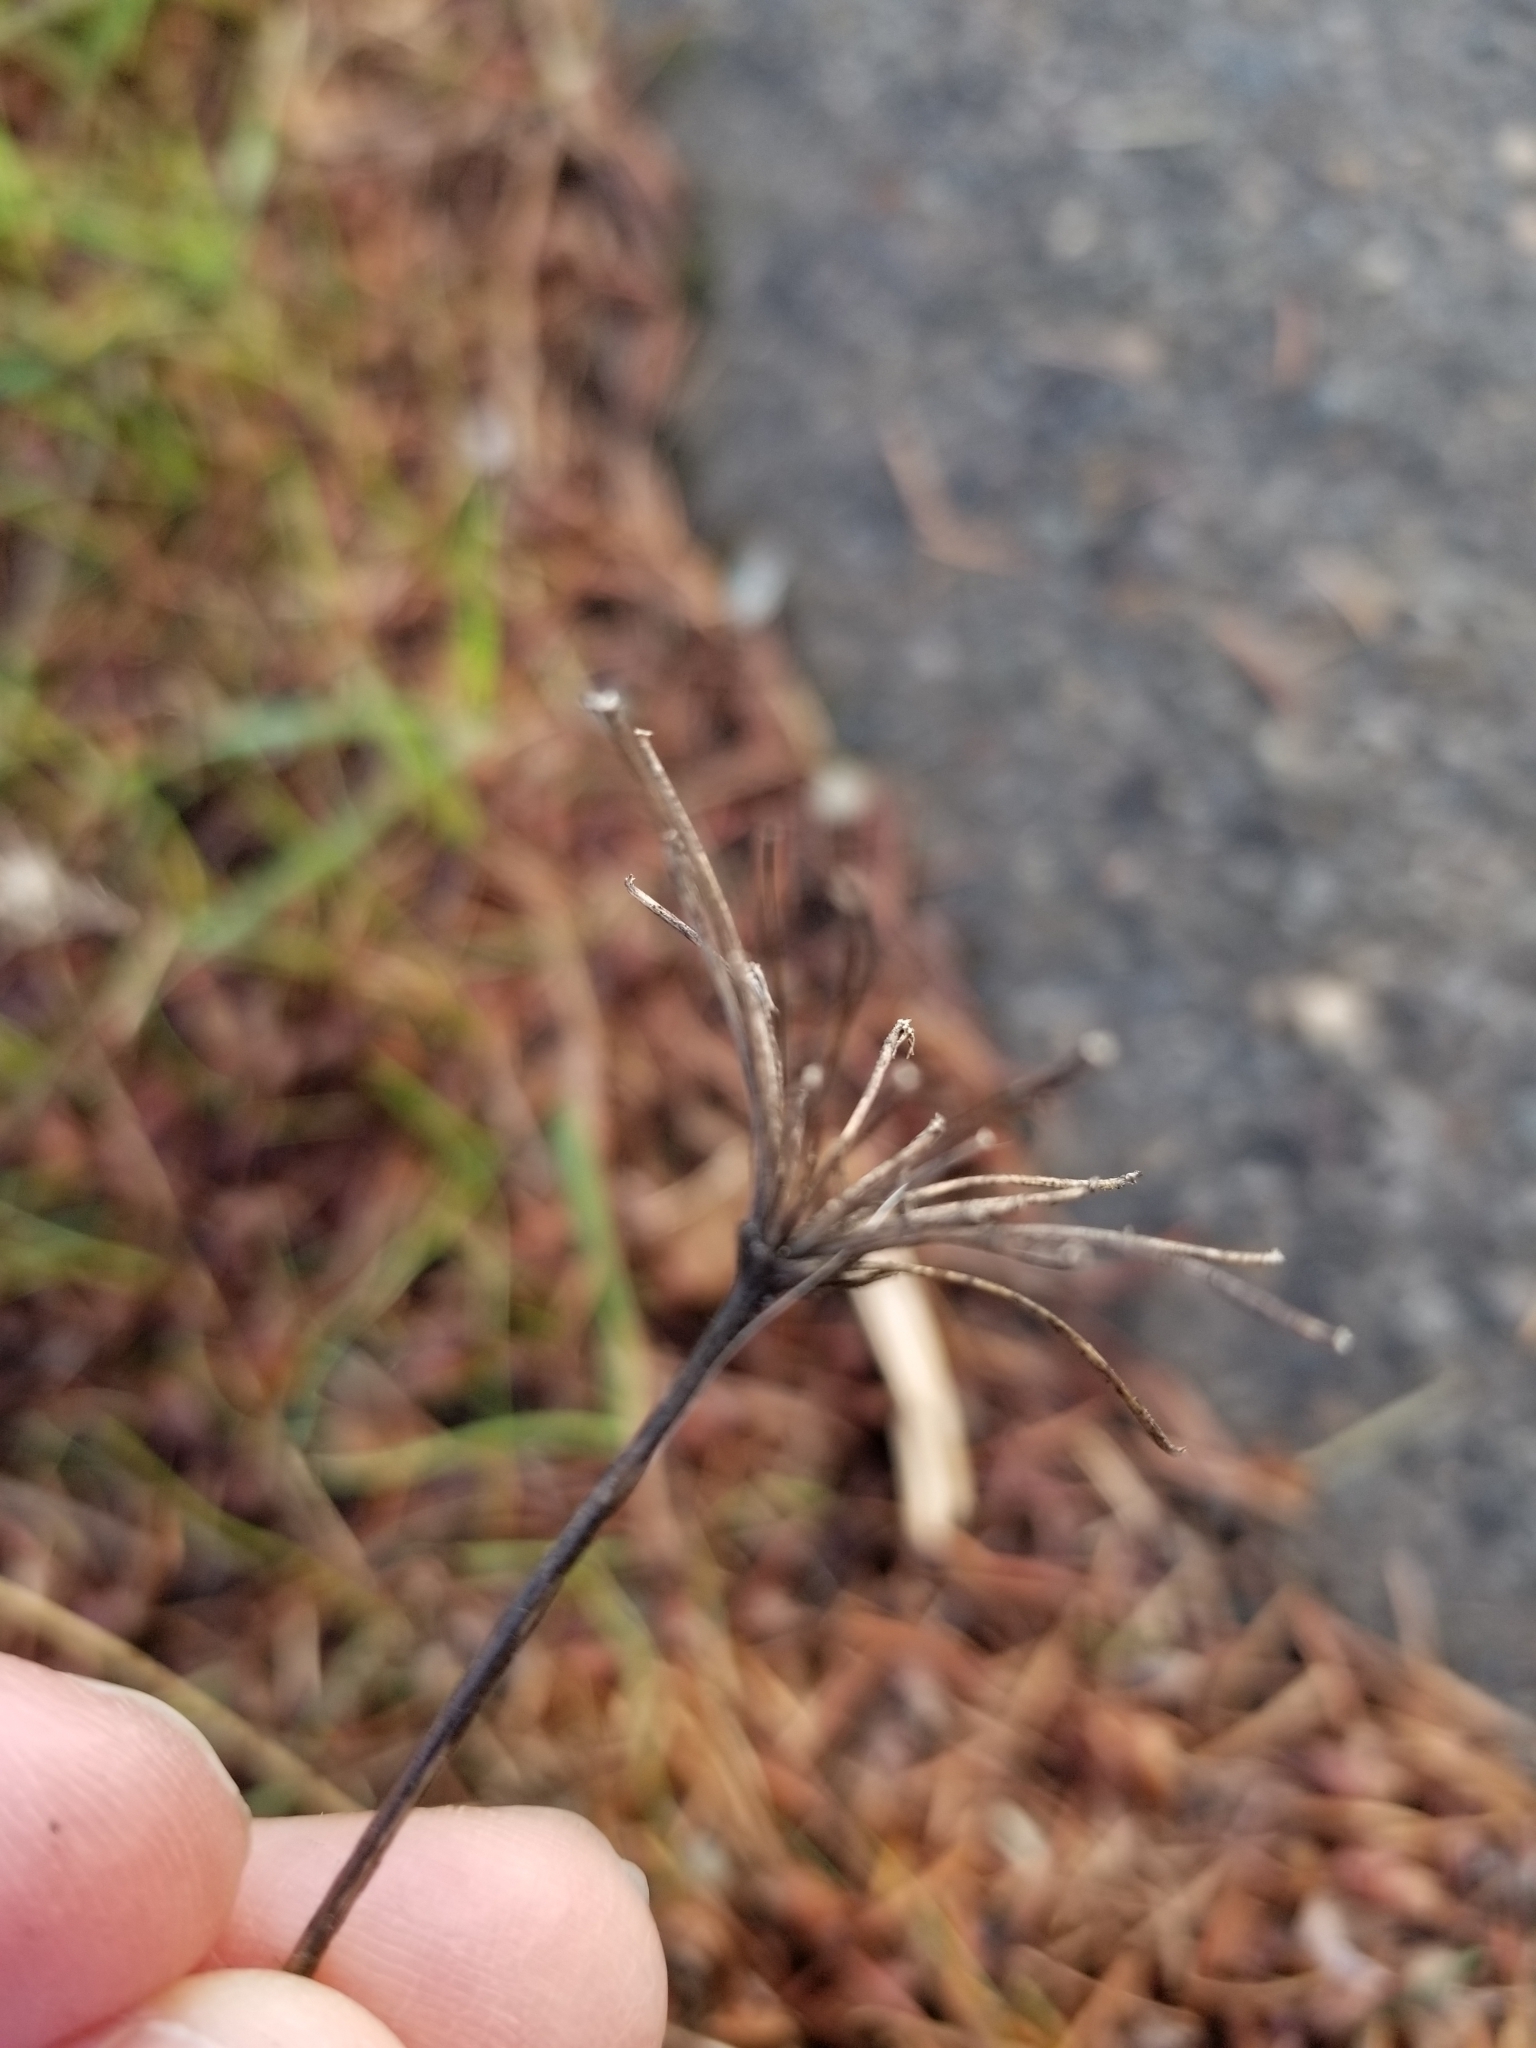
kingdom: Plantae
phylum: Tracheophyta
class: Magnoliopsida
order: Apiales
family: Apiaceae
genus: Daucus
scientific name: Daucus carota
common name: Wild carrot
